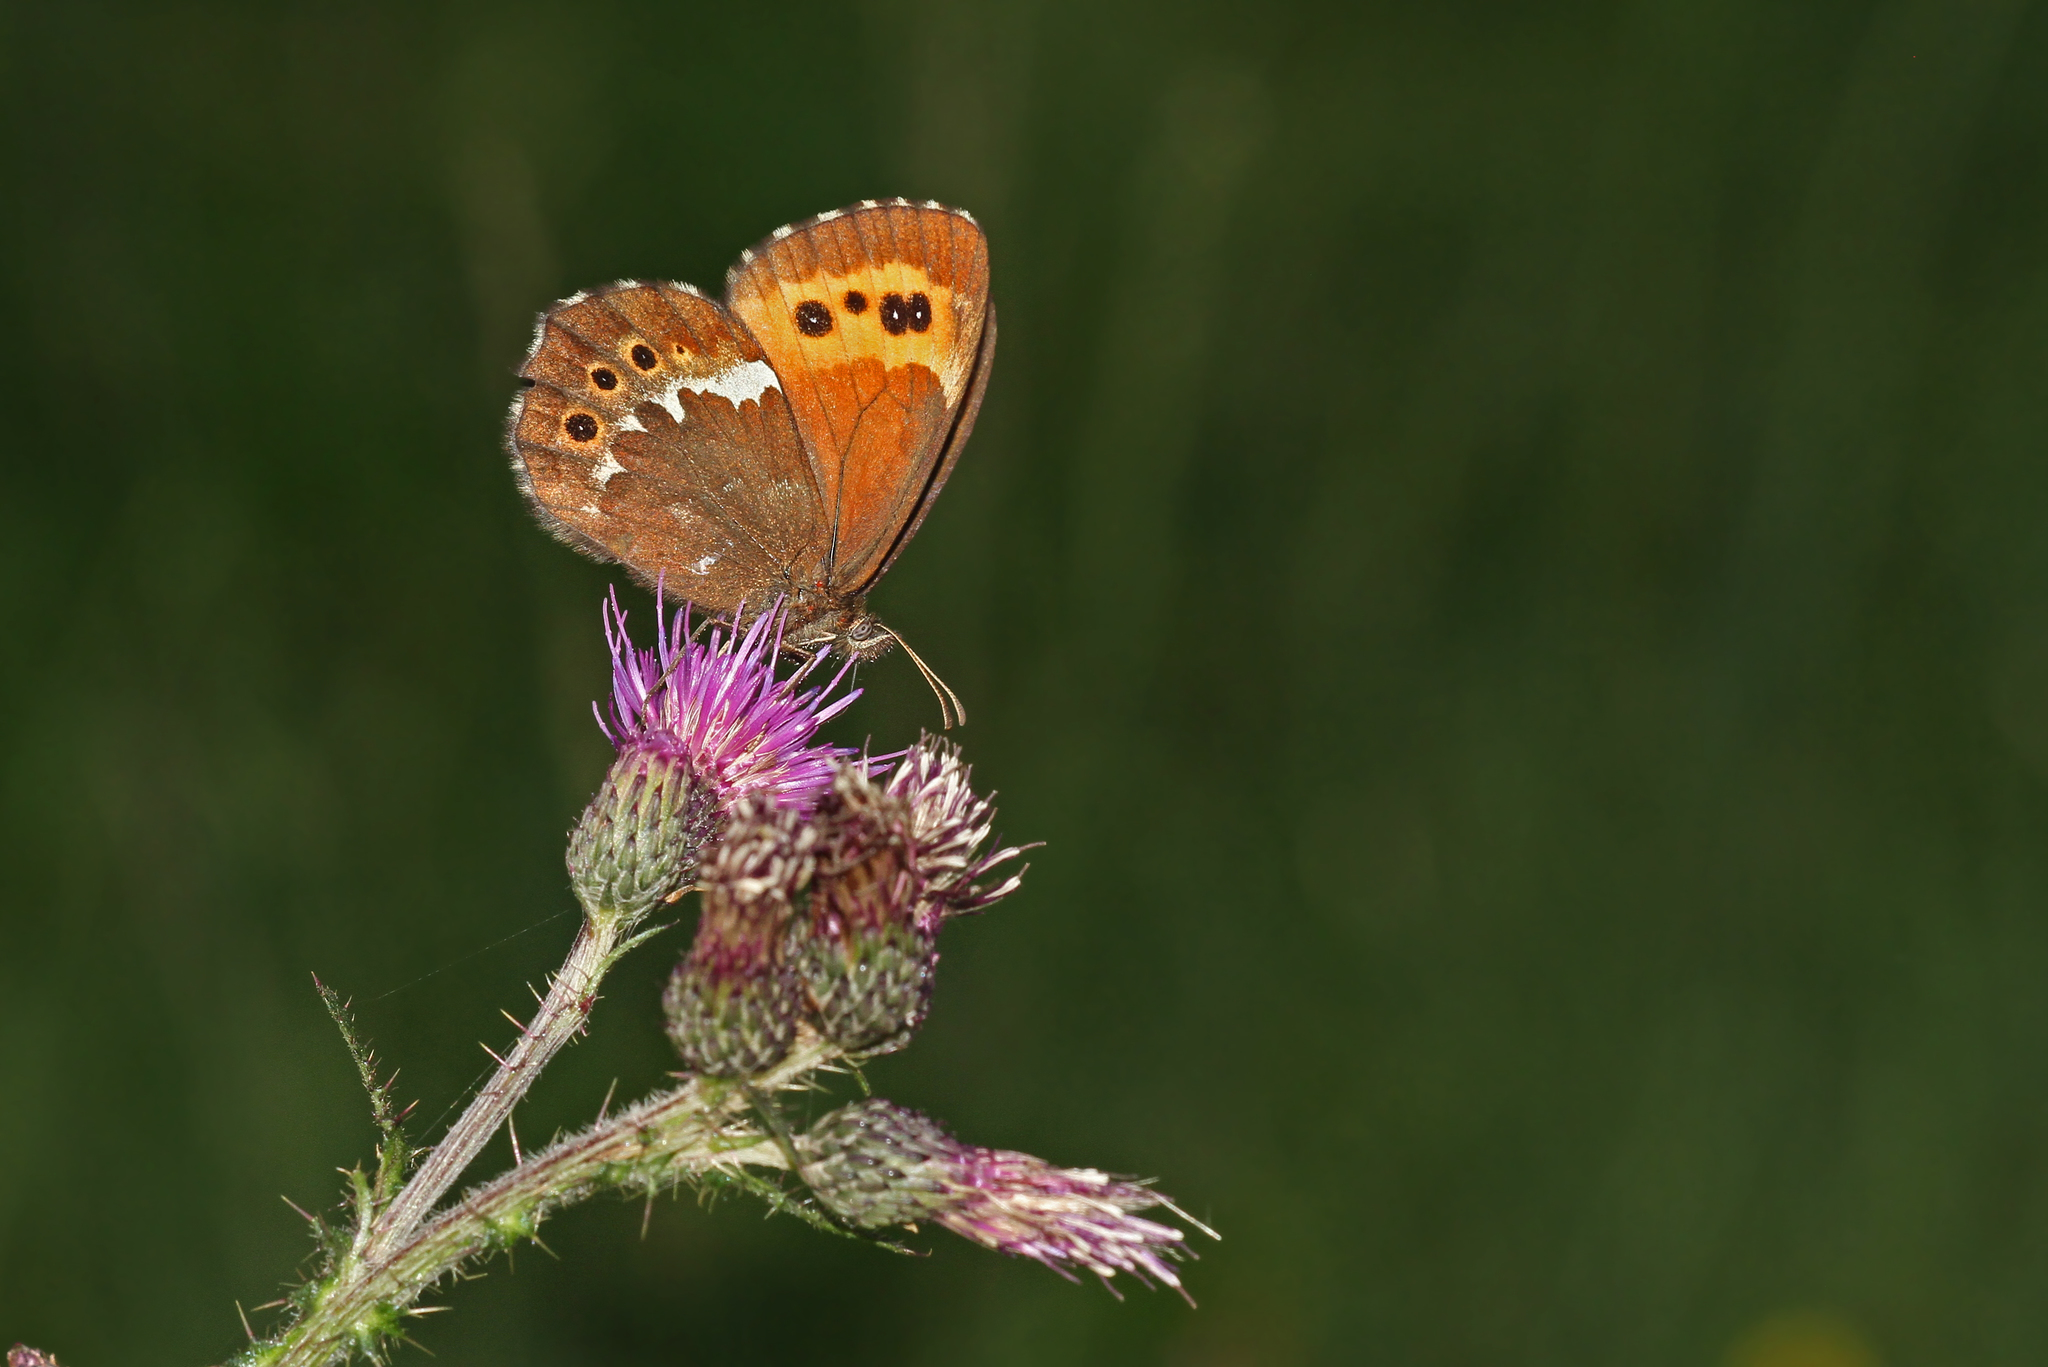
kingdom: Animalia
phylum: Arthropoda
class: Insecta
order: Lepidoptera
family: Nymphalidae
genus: Erebia
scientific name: Erebia ligea
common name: Arran brown
